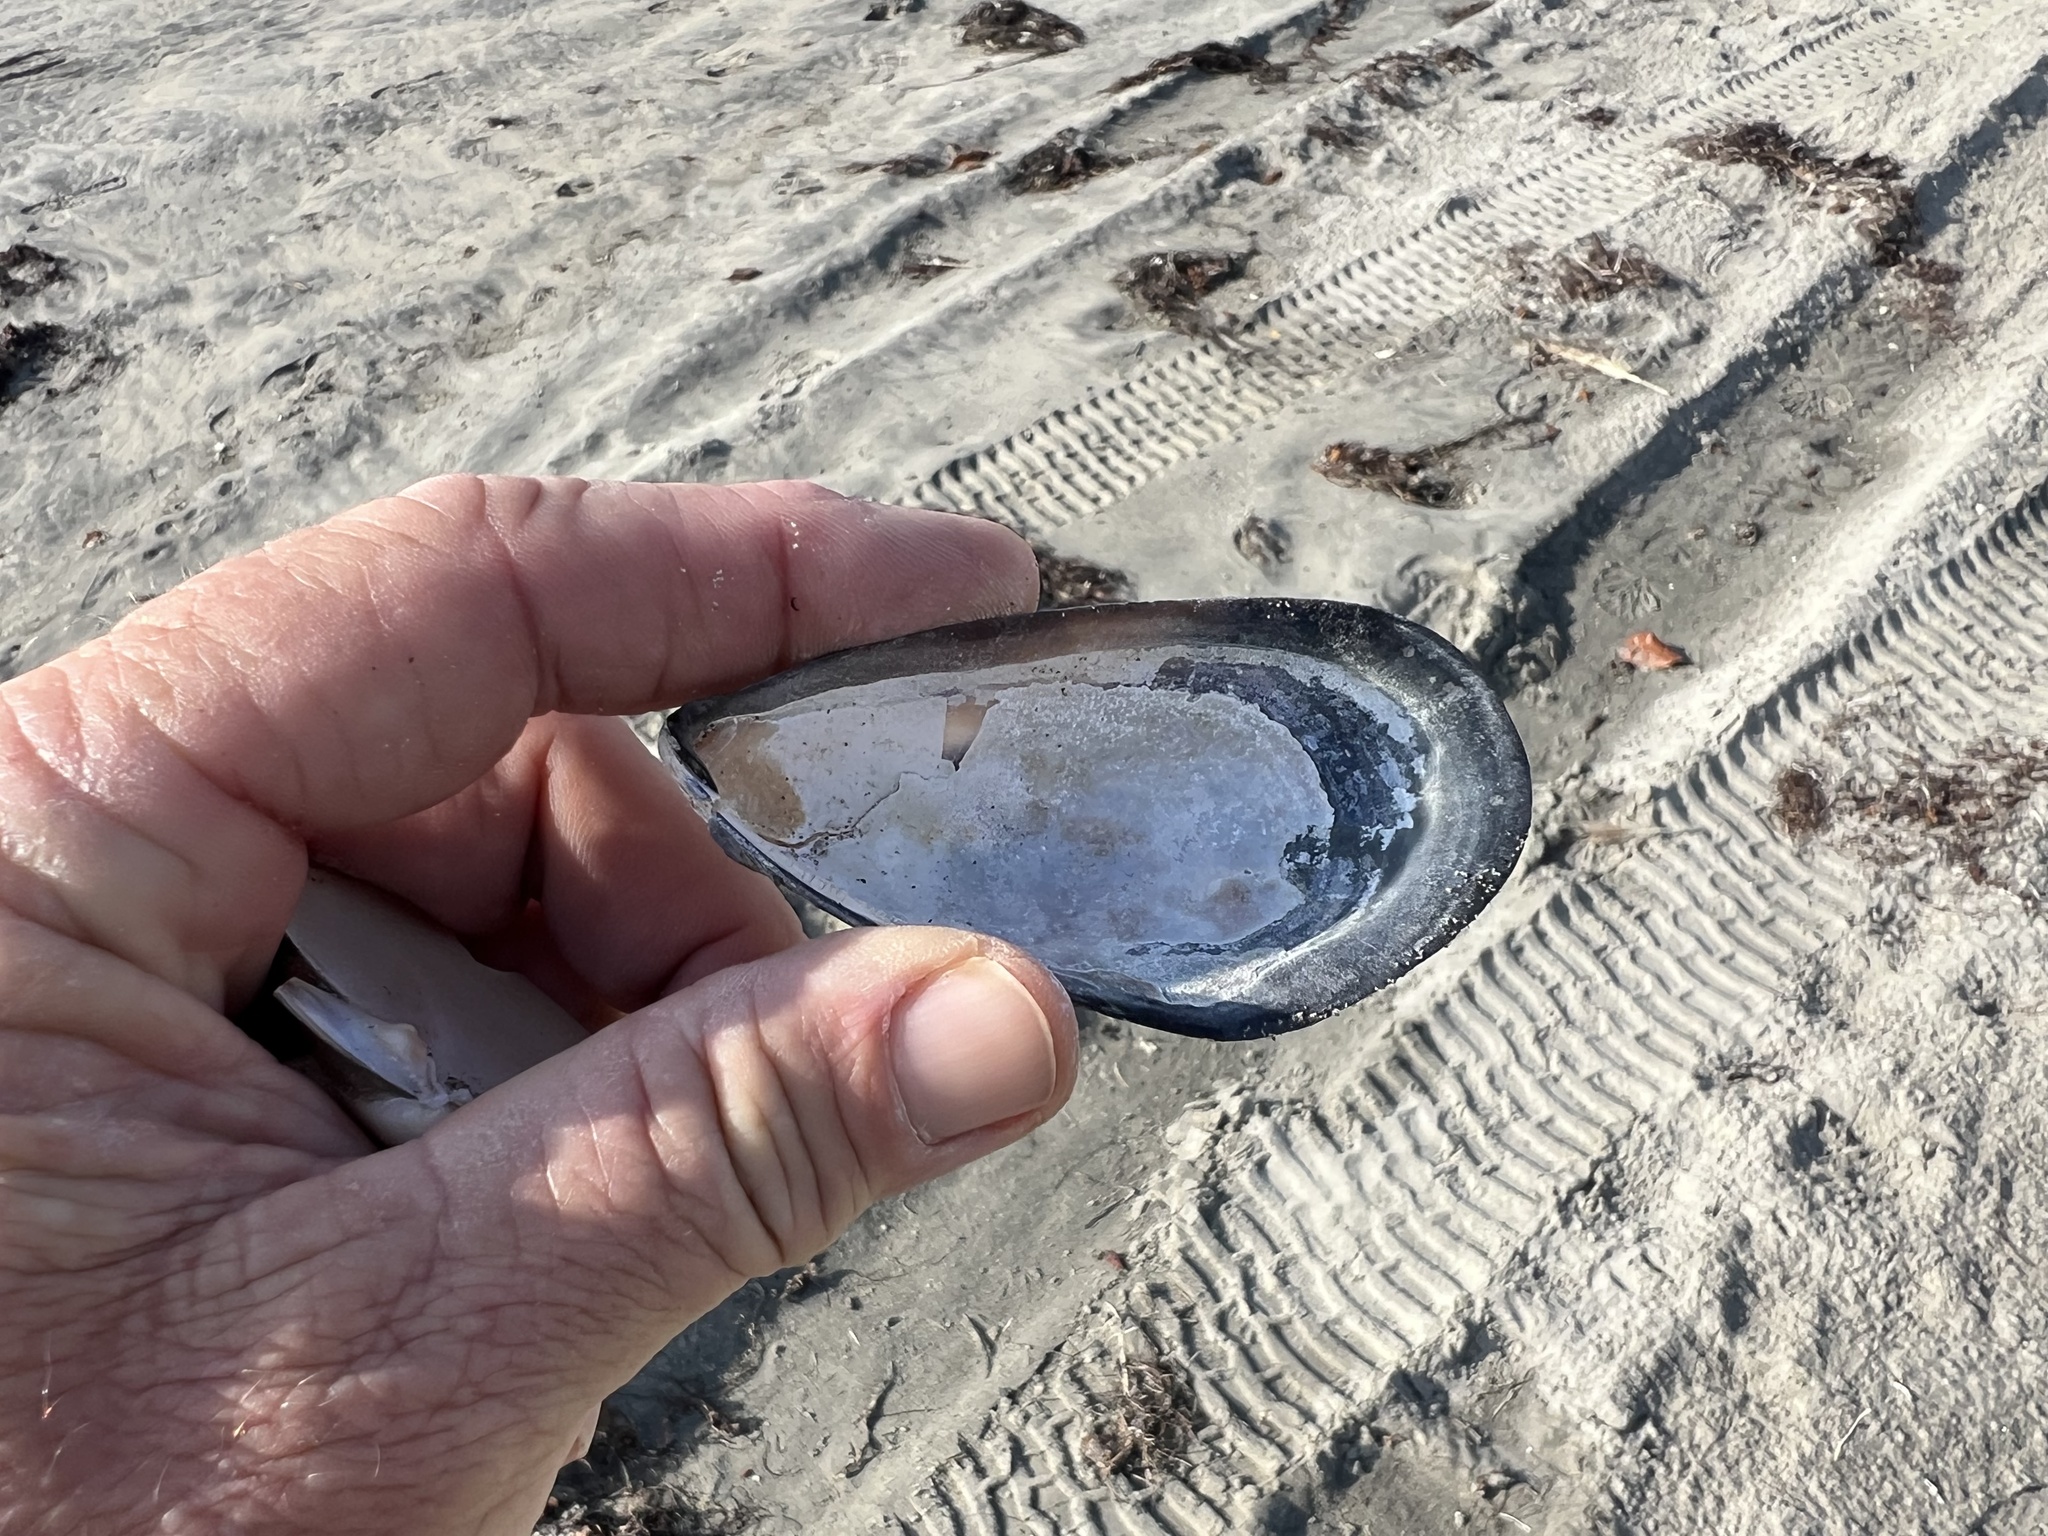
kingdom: Animalia
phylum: Mollusca
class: Bivalvia
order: Mytilida
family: Mytilidae
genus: Mytilus
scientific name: Mytilus californianus
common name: California mussel
